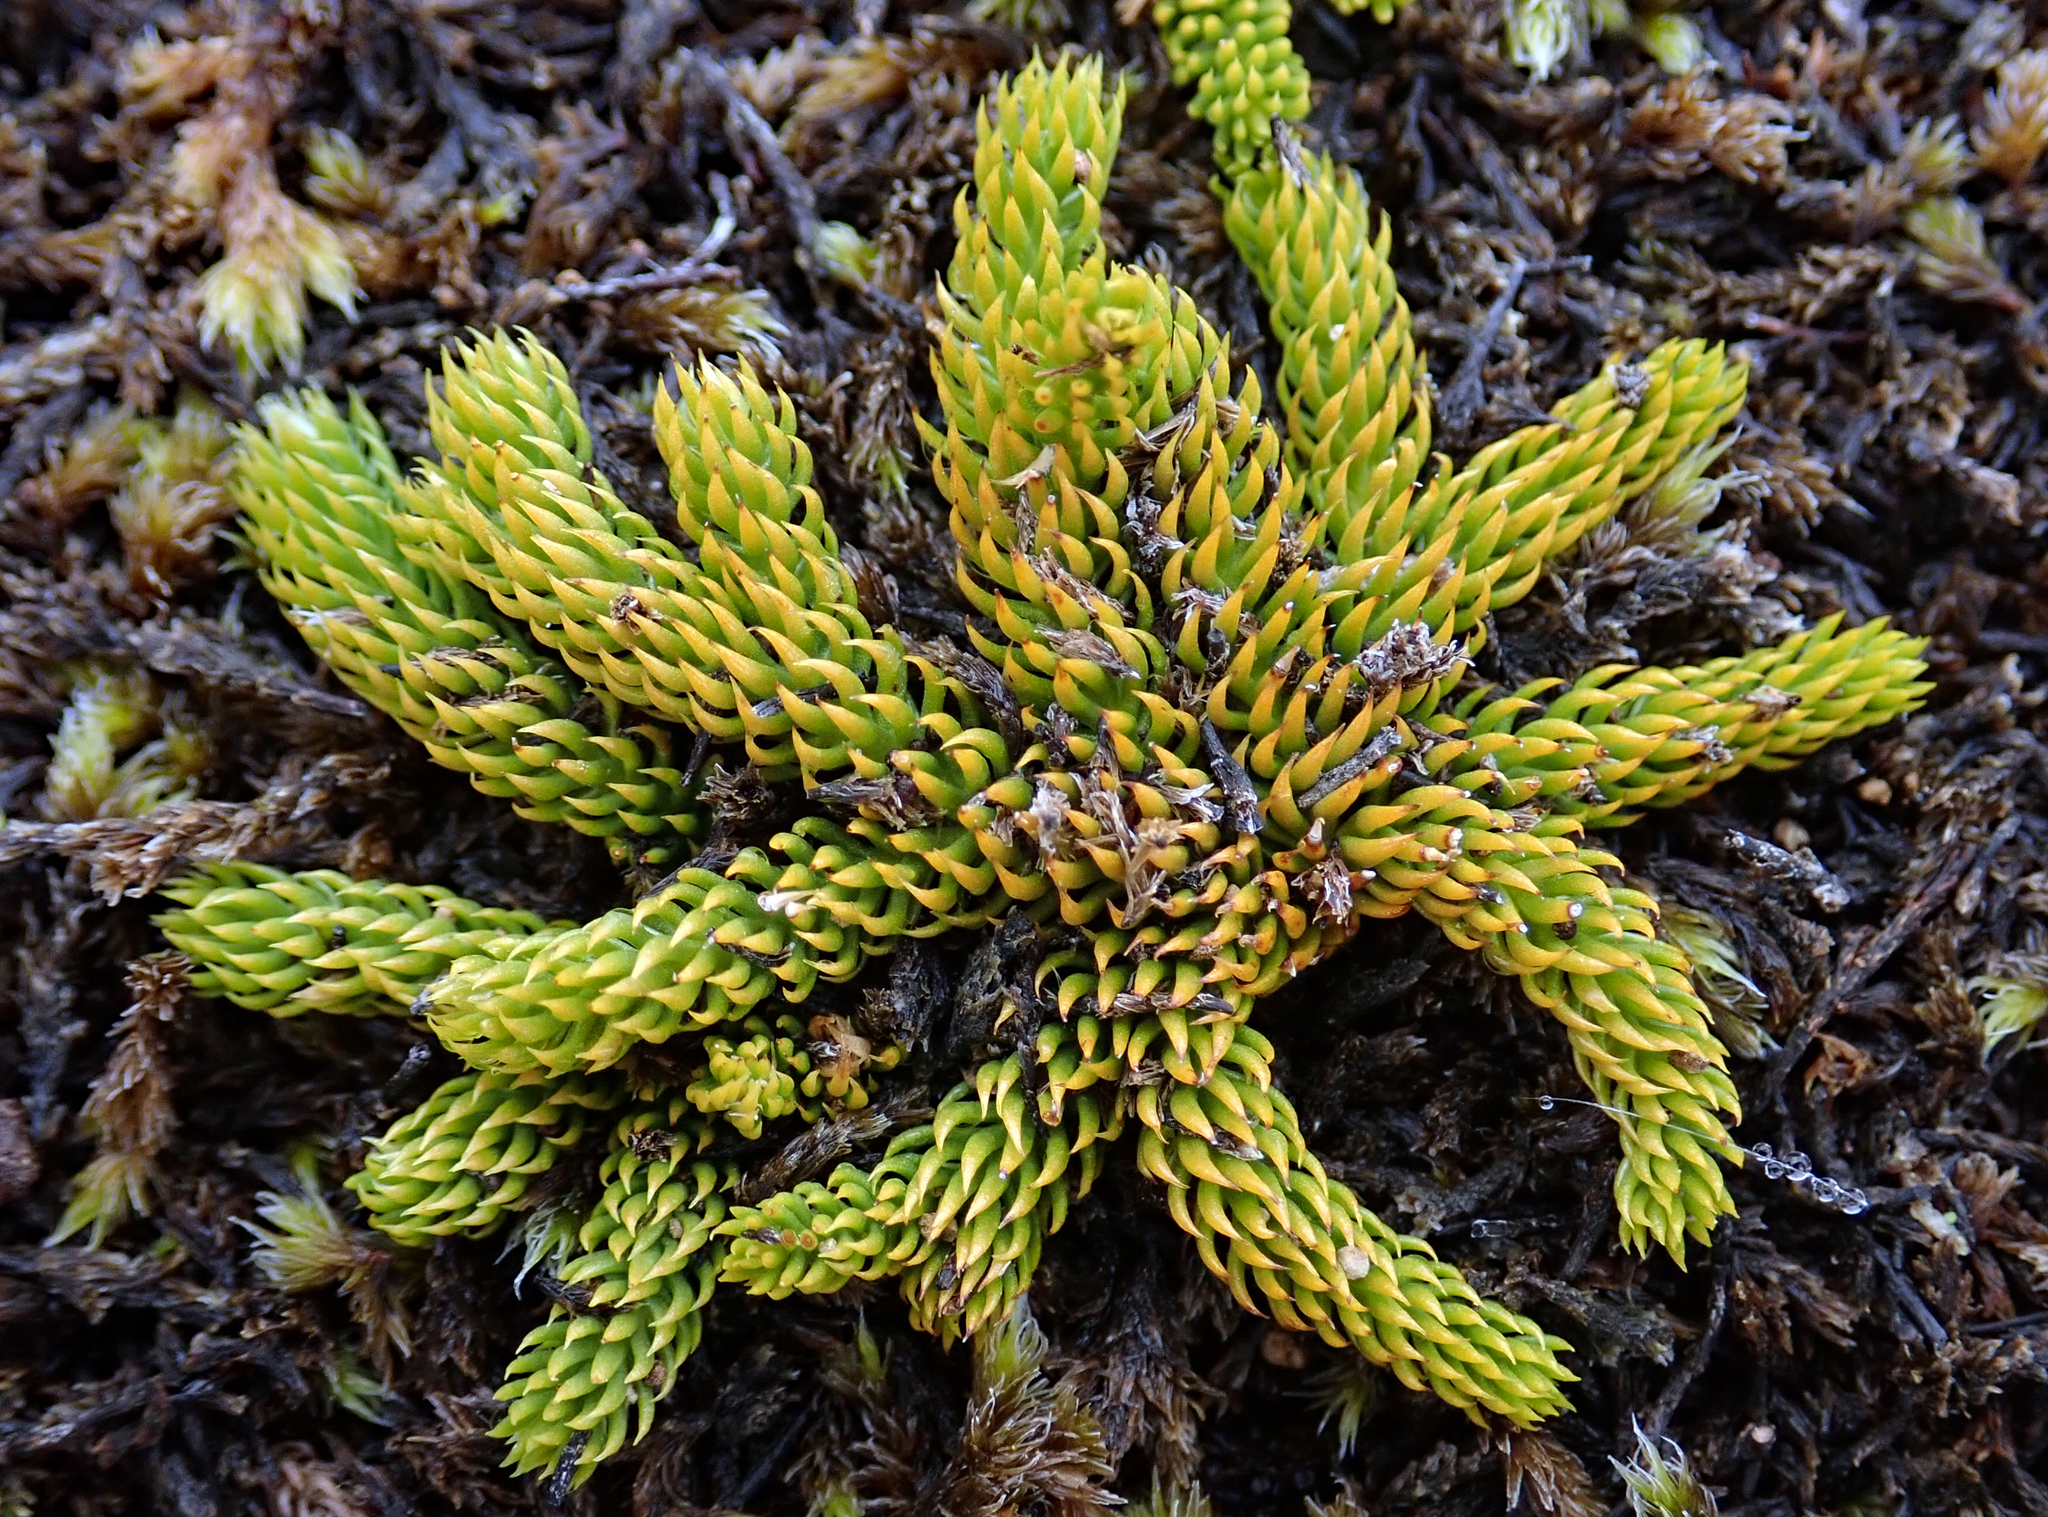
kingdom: Plantae
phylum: Tracheophyta
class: Lycopodiopsida
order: Lycopodiales
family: Lycopodiaceae
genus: Austrolycopodium
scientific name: Austrolycopodium fastigiatum
